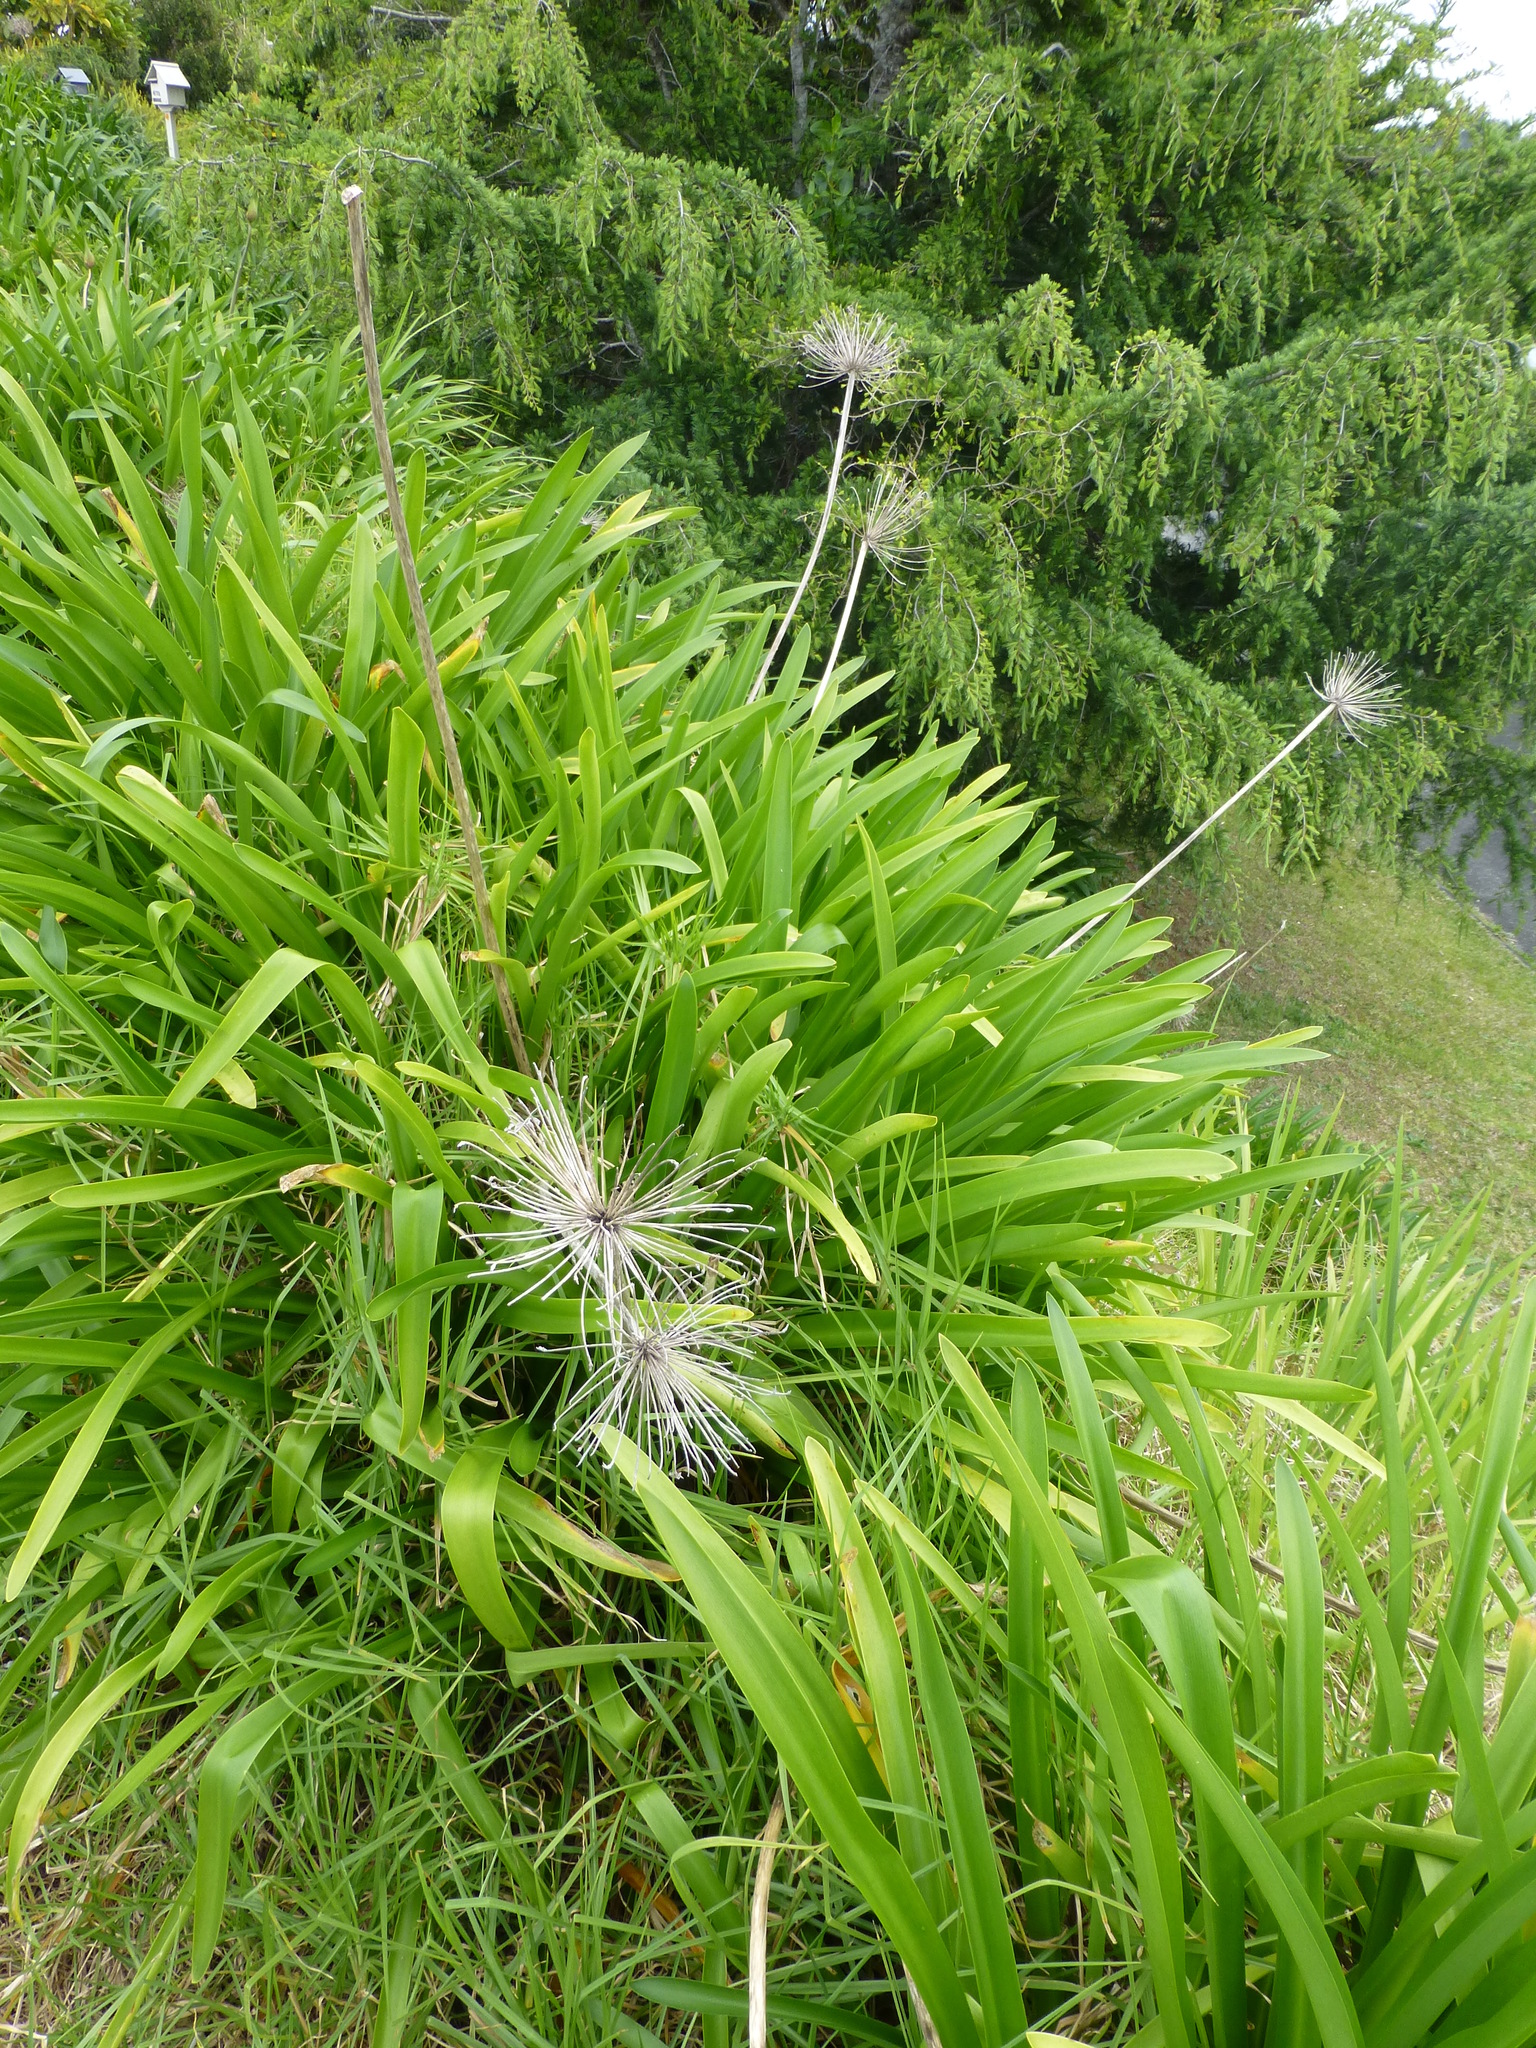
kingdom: Plantae
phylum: Tracheophyta
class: Liliopsida
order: Asparagales
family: Amaryllidaceae
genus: Agapanthus
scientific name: Agapanthus praecox
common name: African-lily
